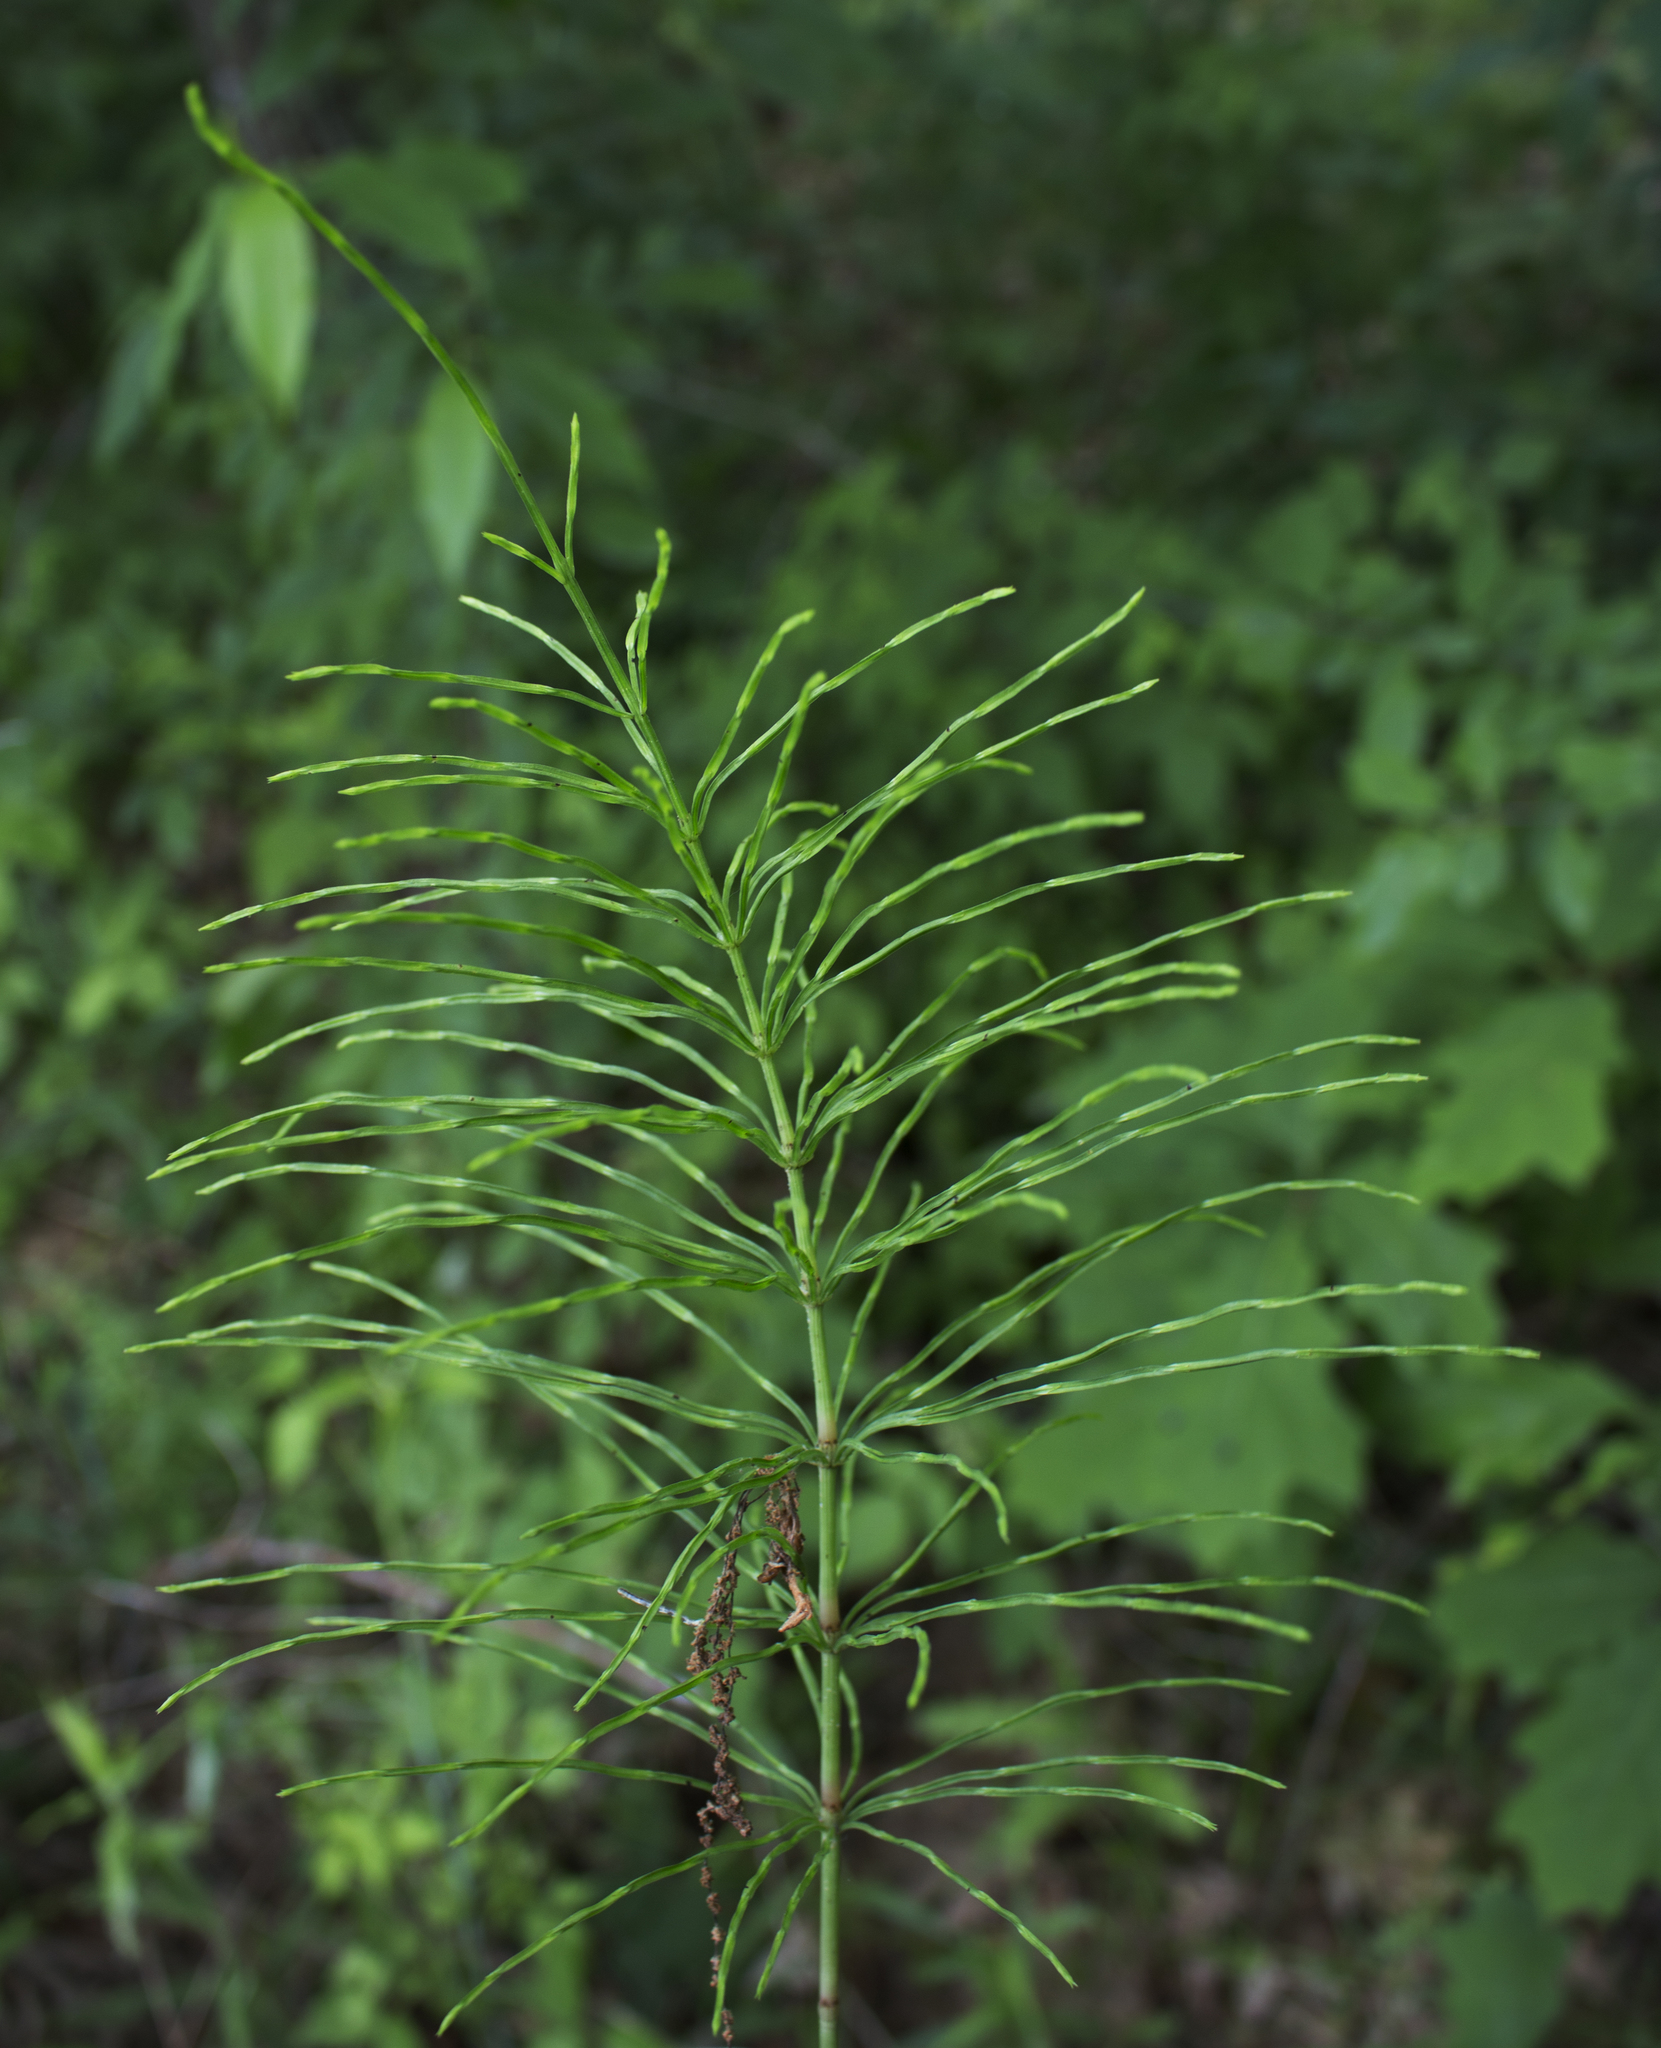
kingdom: Plantae
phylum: Tracheophyta
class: Polypodiopsida
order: Equisetales
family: Equisetaceae
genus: Equisetum
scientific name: Equisetum arvense
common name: Field horsetail
